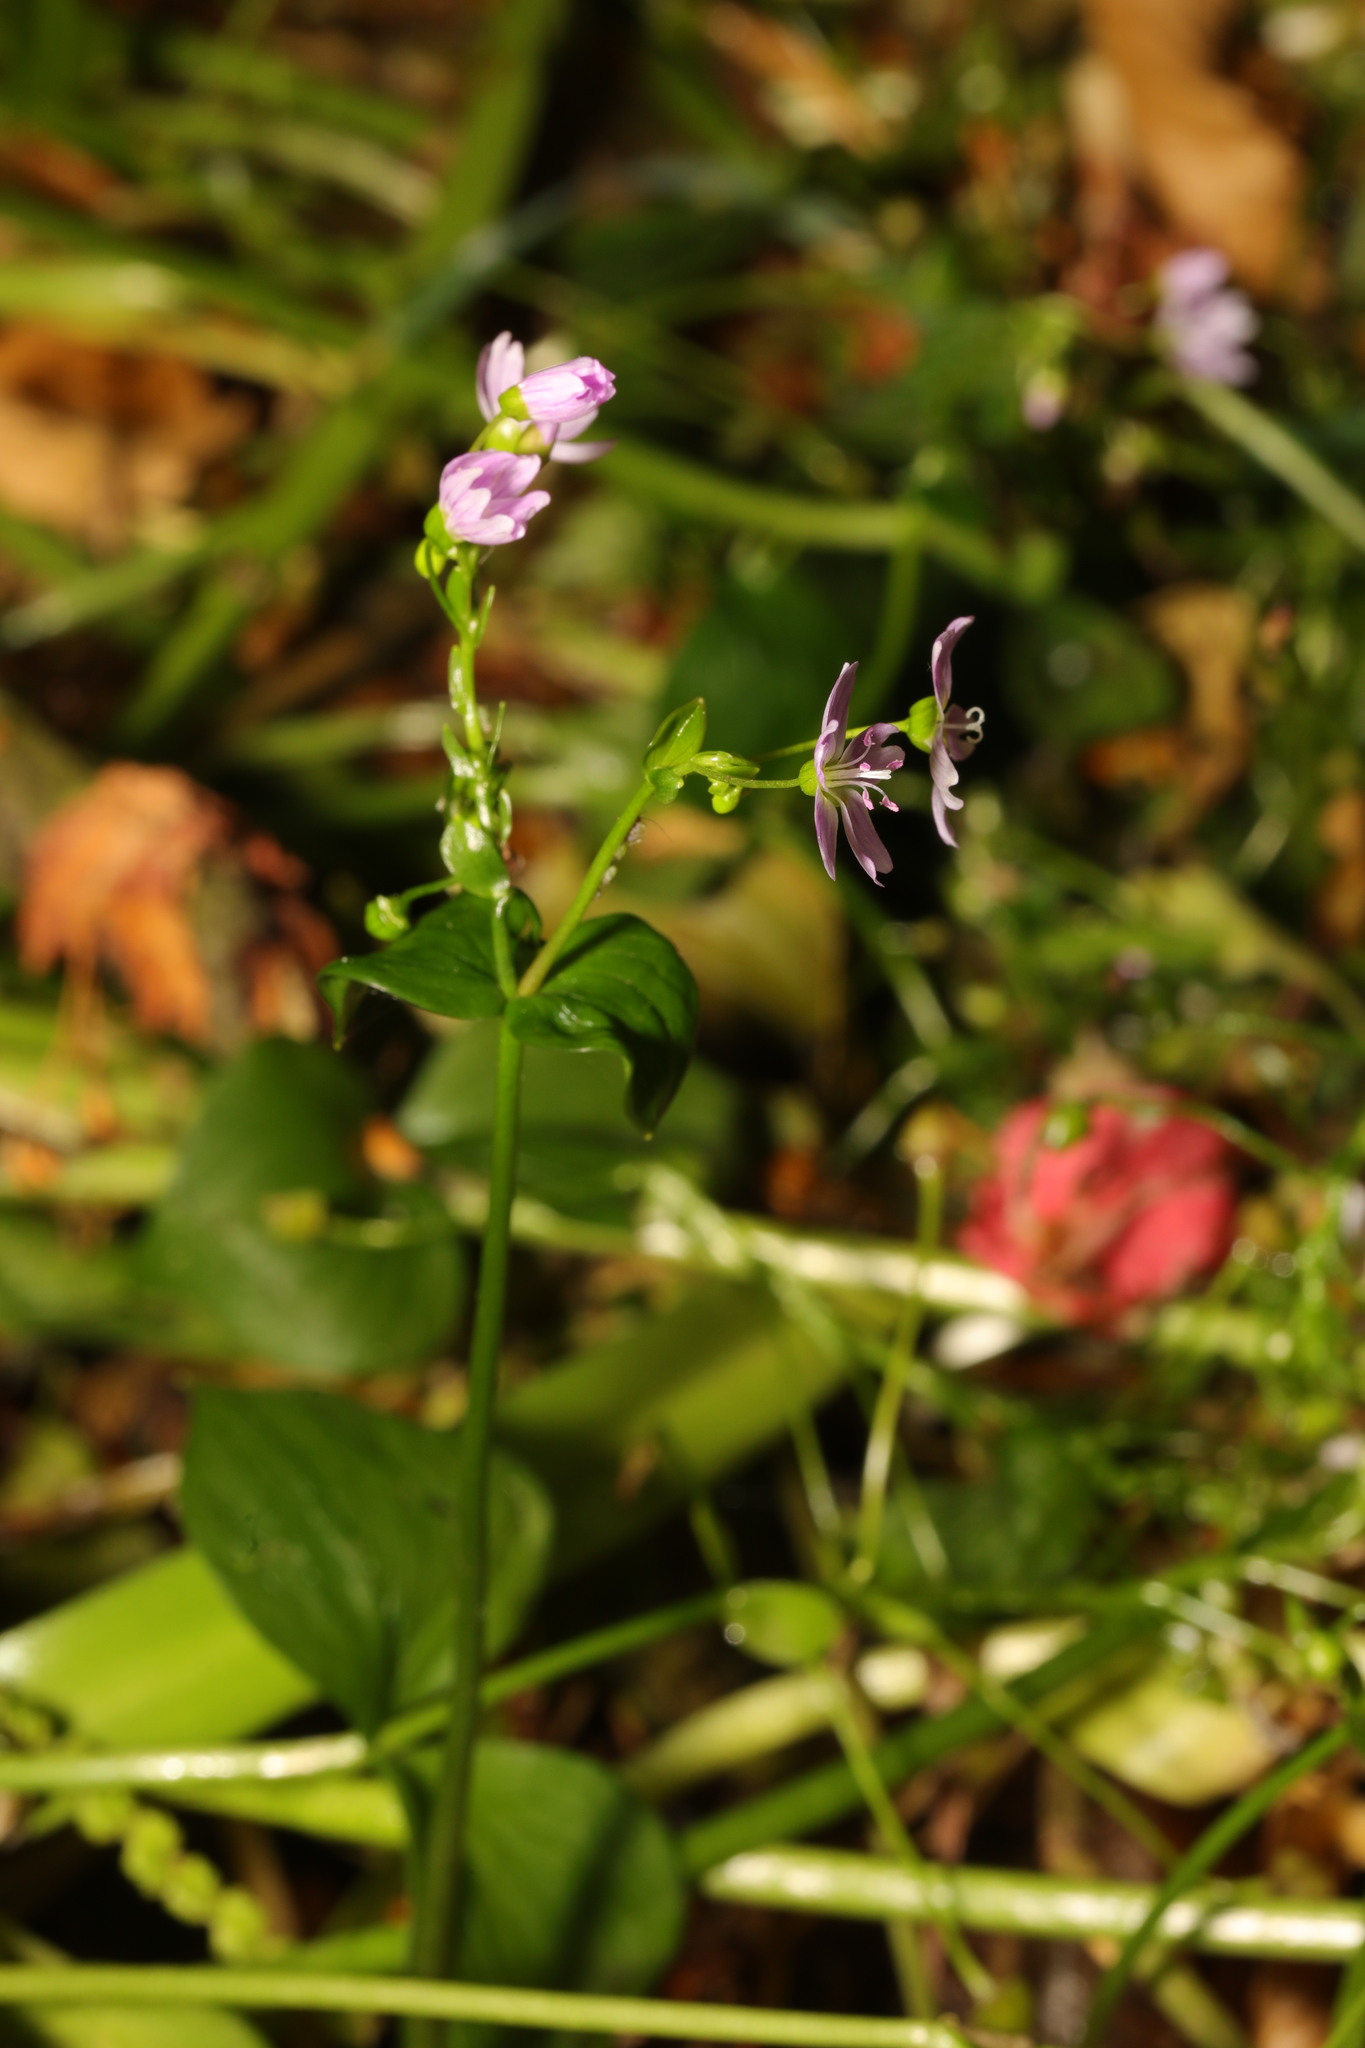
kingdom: Plantae
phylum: Tracheophyta
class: Magnoliopsida
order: Caryophyllales
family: Montiaceae
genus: Claytonia
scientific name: Claytonia sibirica
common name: Pink purslane
